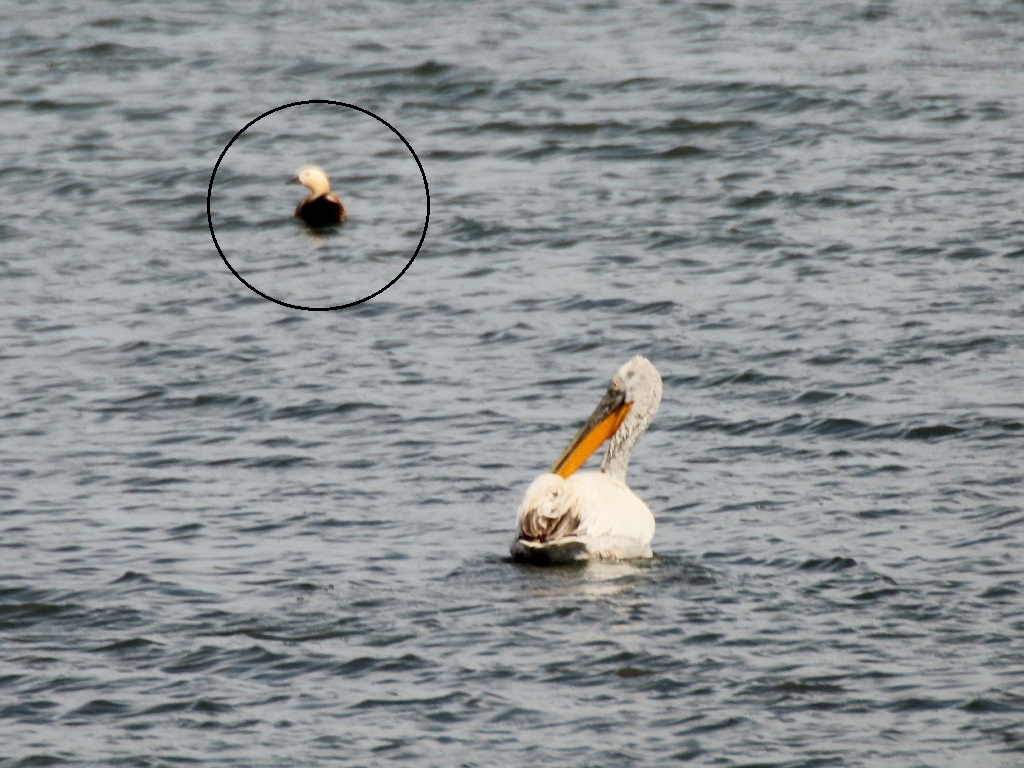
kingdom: Animalia
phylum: Chordata
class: Aves
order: Anseriformes
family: Anatidae
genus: Tadorna
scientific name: Tadorna ferruginea
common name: Ruddy shelduck
